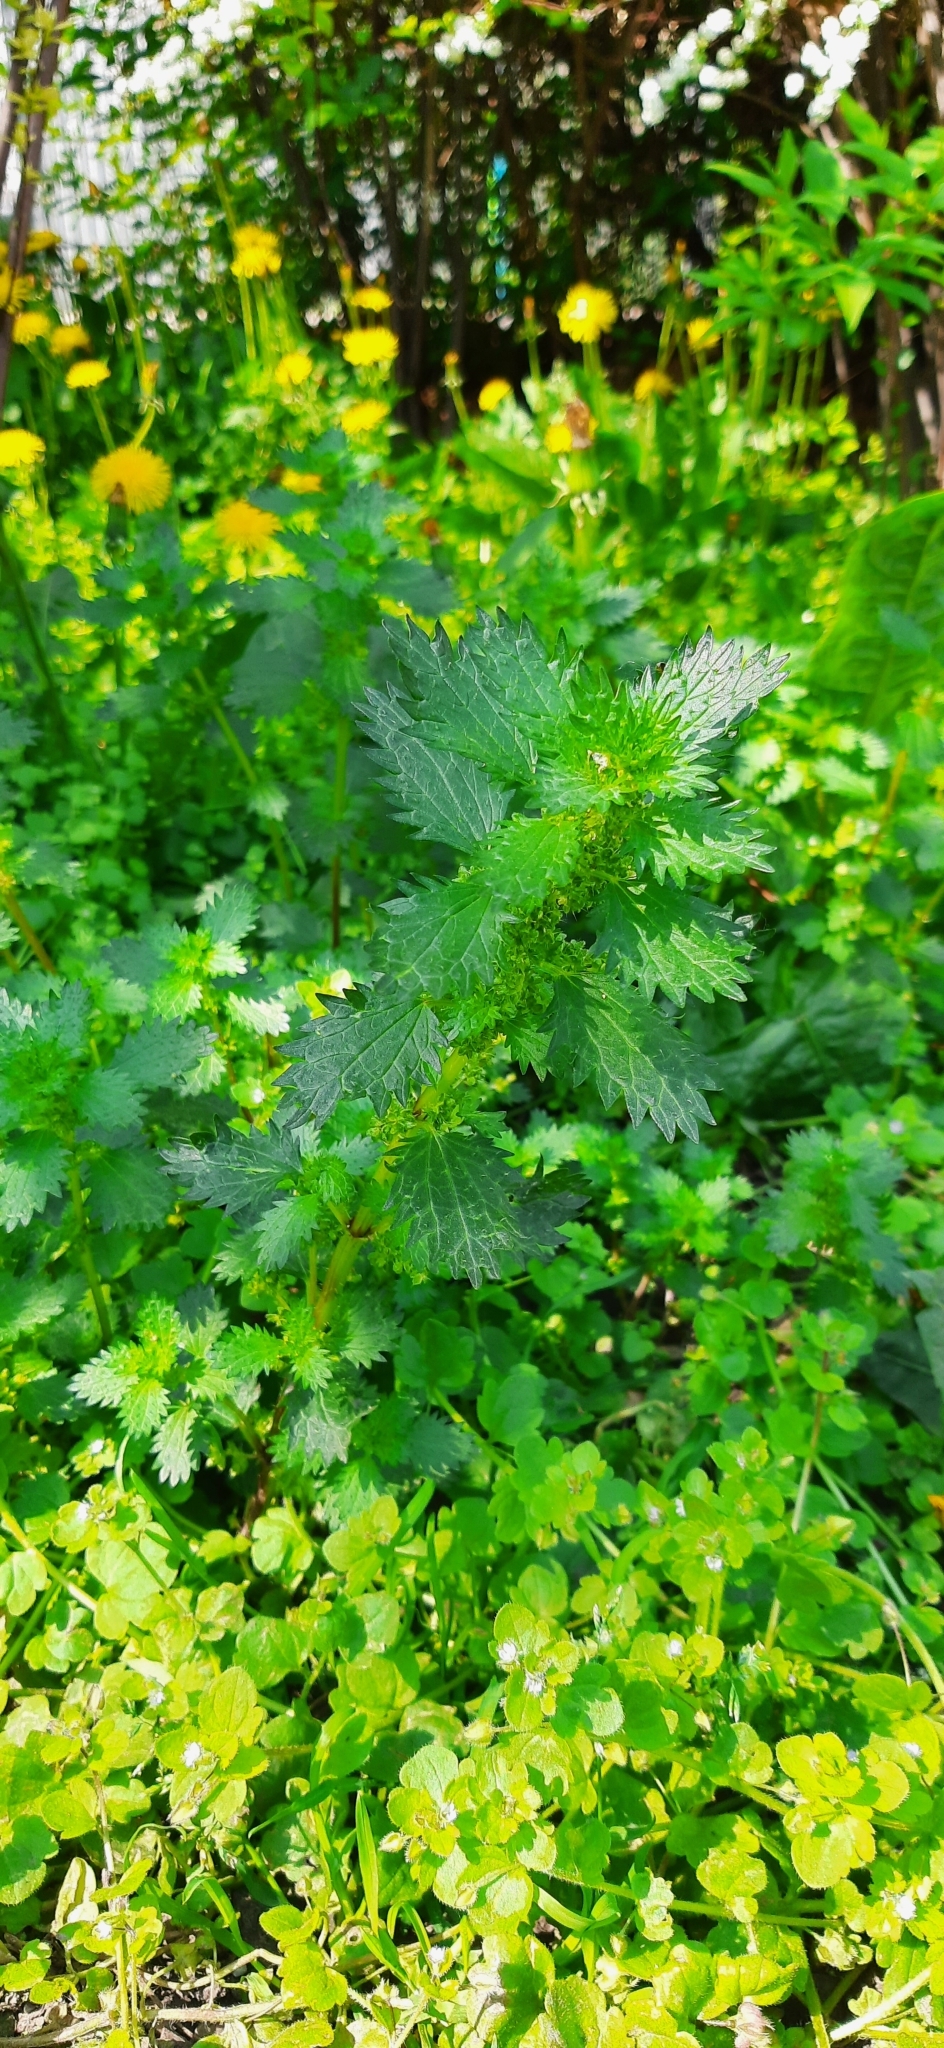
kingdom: Plantae
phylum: Tracheophyta
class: Magnoliopsida
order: Rosales
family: Urticaceae
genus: Urtica
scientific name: Urtica urens
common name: Dwarf nettle
